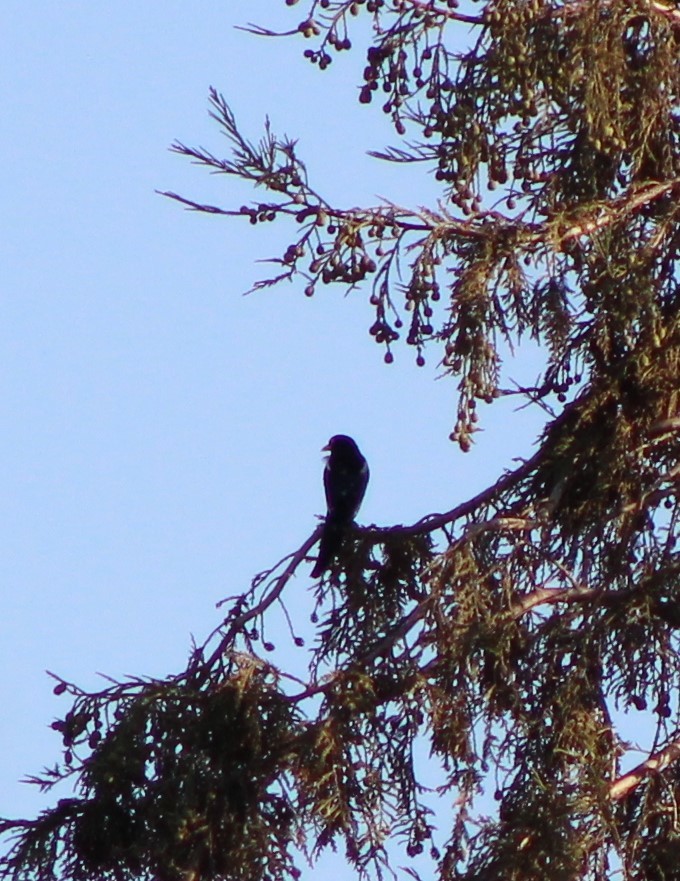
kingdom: Animalia
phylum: Chordata
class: Aves
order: Passeriformes
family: Corvidae
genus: Pica
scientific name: Pica nuttalli
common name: Yellow-billed magpie
